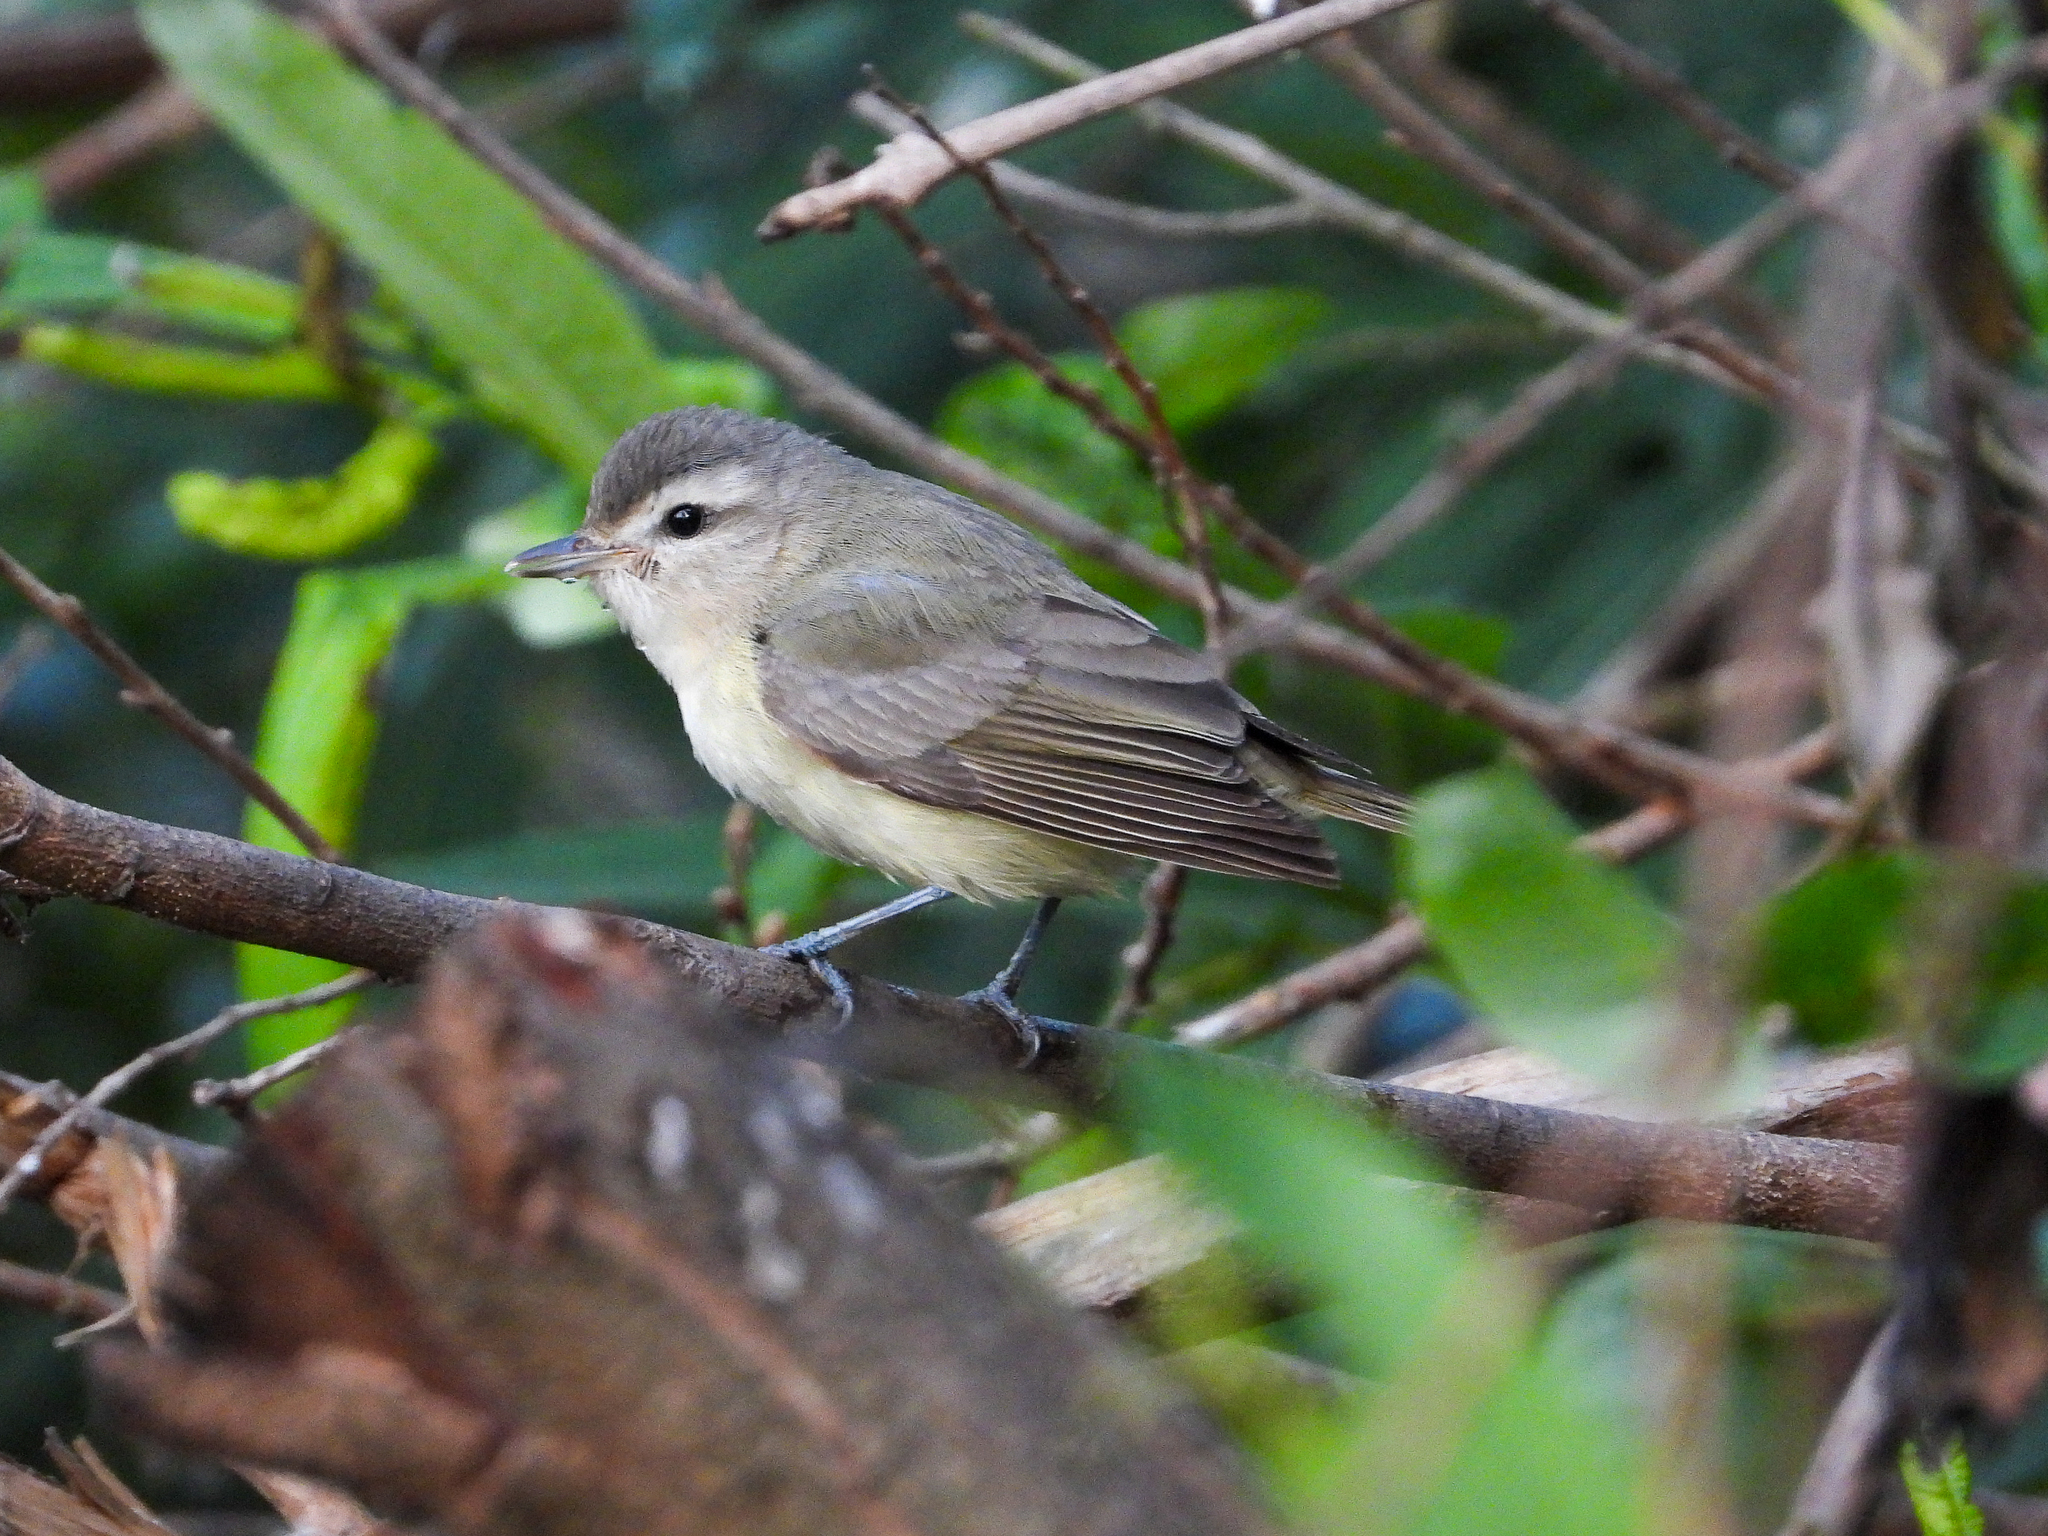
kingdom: Animalia
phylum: Chordata
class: Aves
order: Passeriformes
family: Vireonidae
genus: Vireo
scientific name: Vireo gilvus
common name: Warbling vireo
